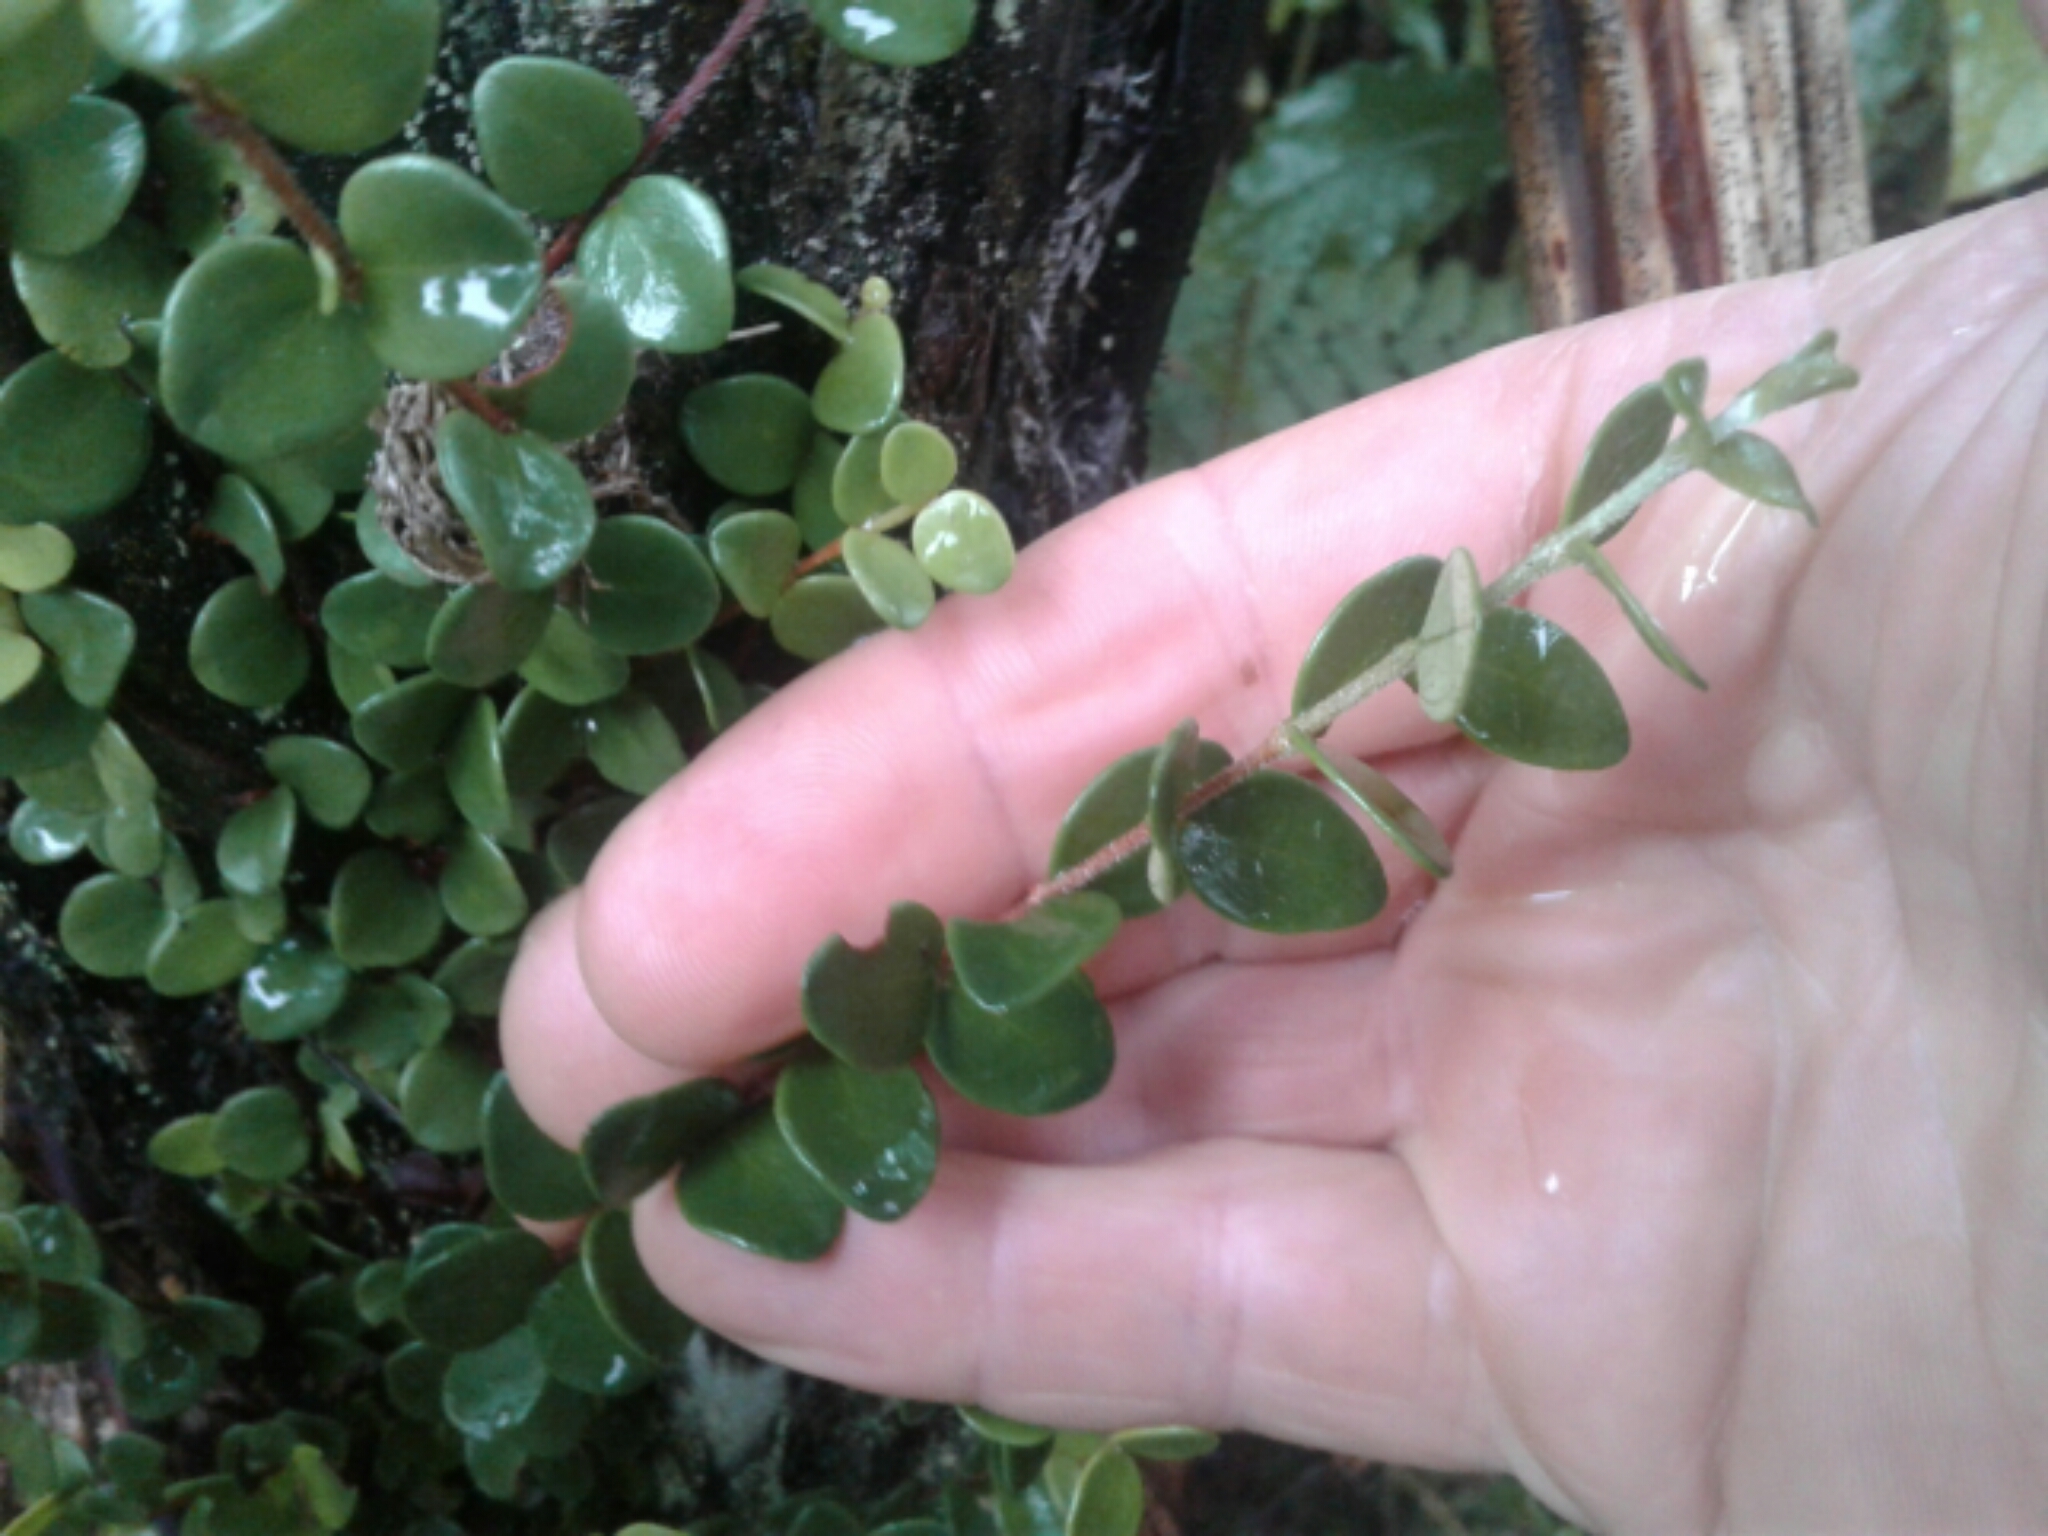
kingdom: Plantae
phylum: Tracheophyta
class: Magnoliopsida
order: Myrtales
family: Myrtaceae
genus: Metrosideros
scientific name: Metrosideros perforata
